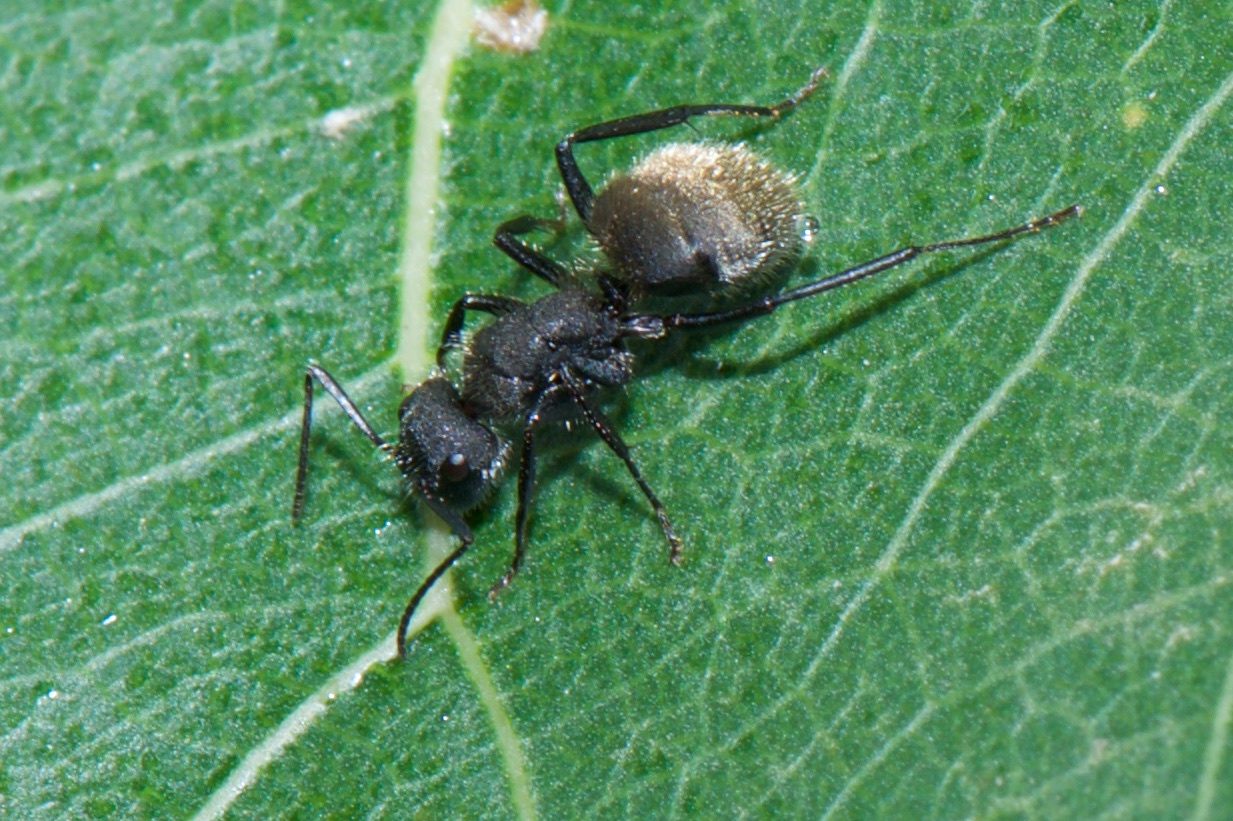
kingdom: Animalia
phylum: Arthropoda
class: Insecta
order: Hymenoptera
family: Formicidae
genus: Camponotus
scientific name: Camponotus mus
